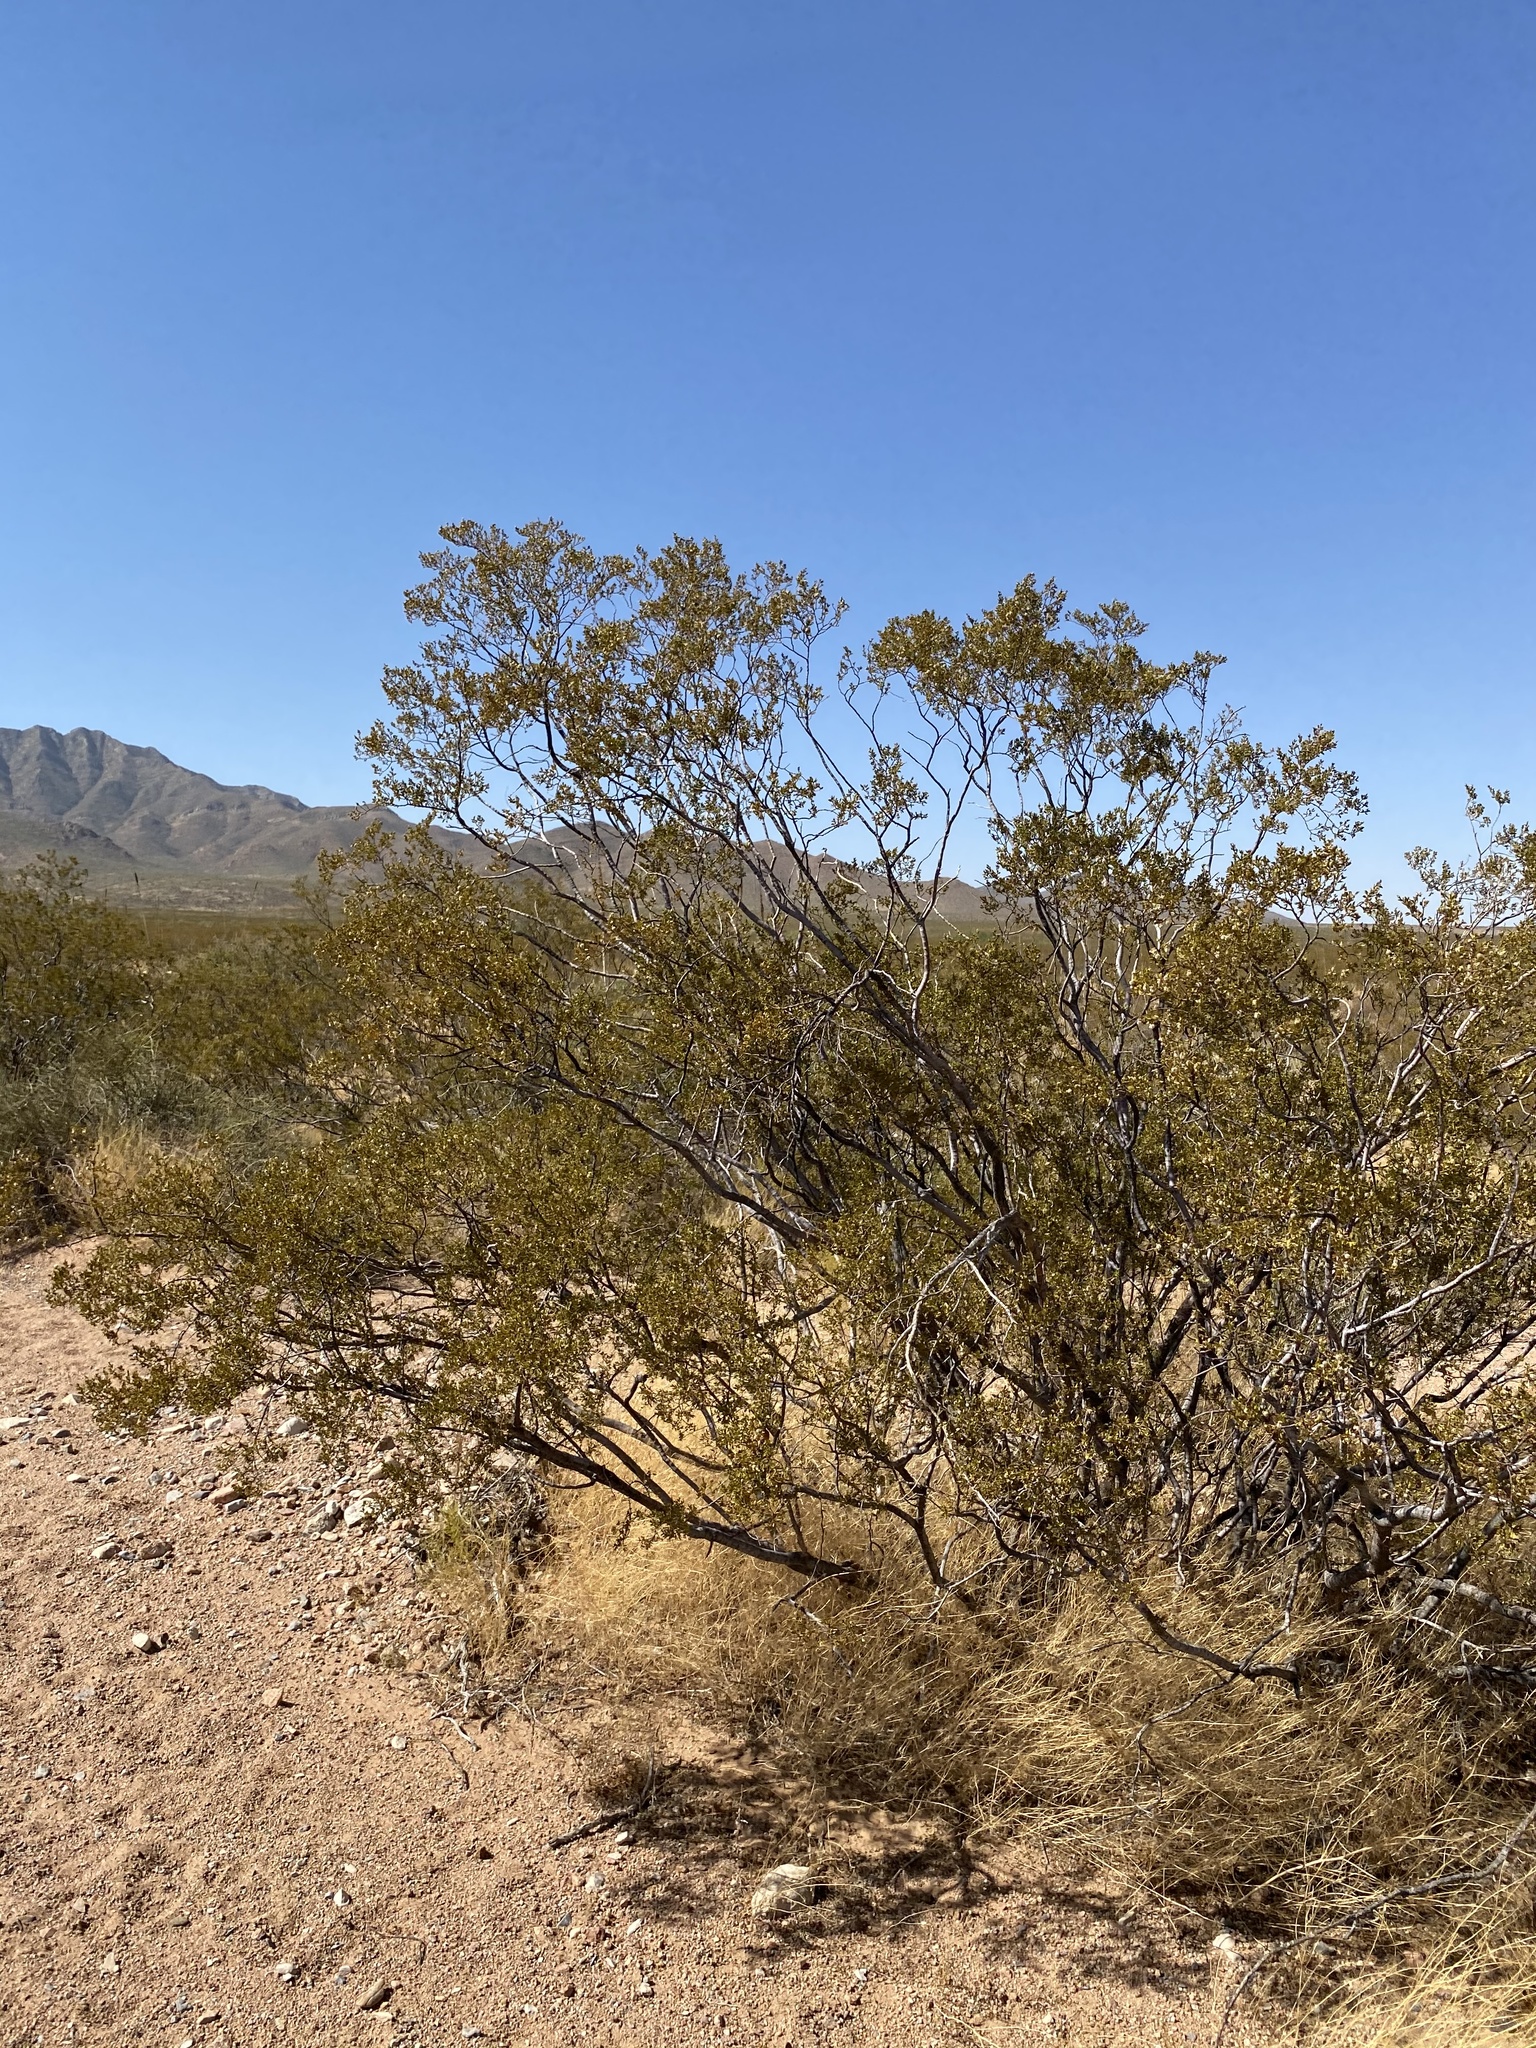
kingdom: Plantae
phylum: Tracheophyta
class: Magnoliopsida
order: Zygophyllales
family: Zygophyllaceae
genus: Larrea
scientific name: Larrea tridentata
